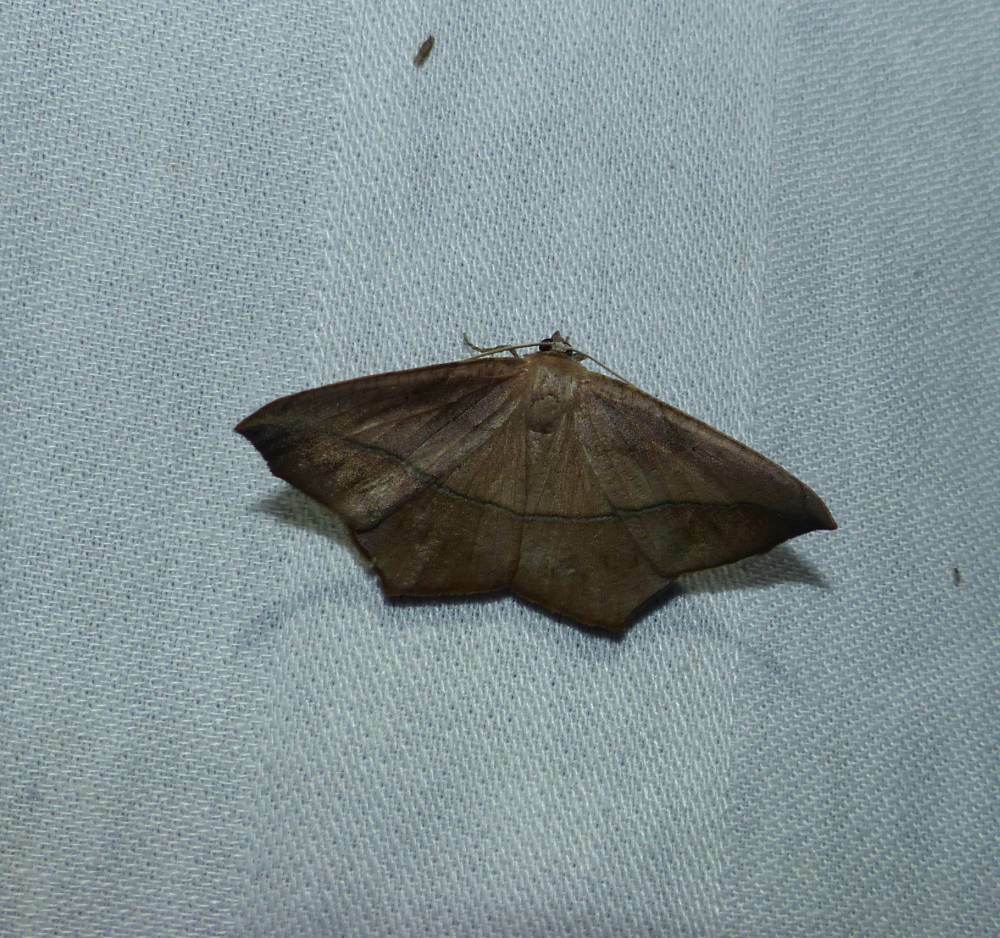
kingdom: Animalia
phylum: Arthropoda
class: Insecta
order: Lepidoptera
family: Geometridae
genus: Prochoerodes
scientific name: Prochoerodes lineola
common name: Large maple spanworm
